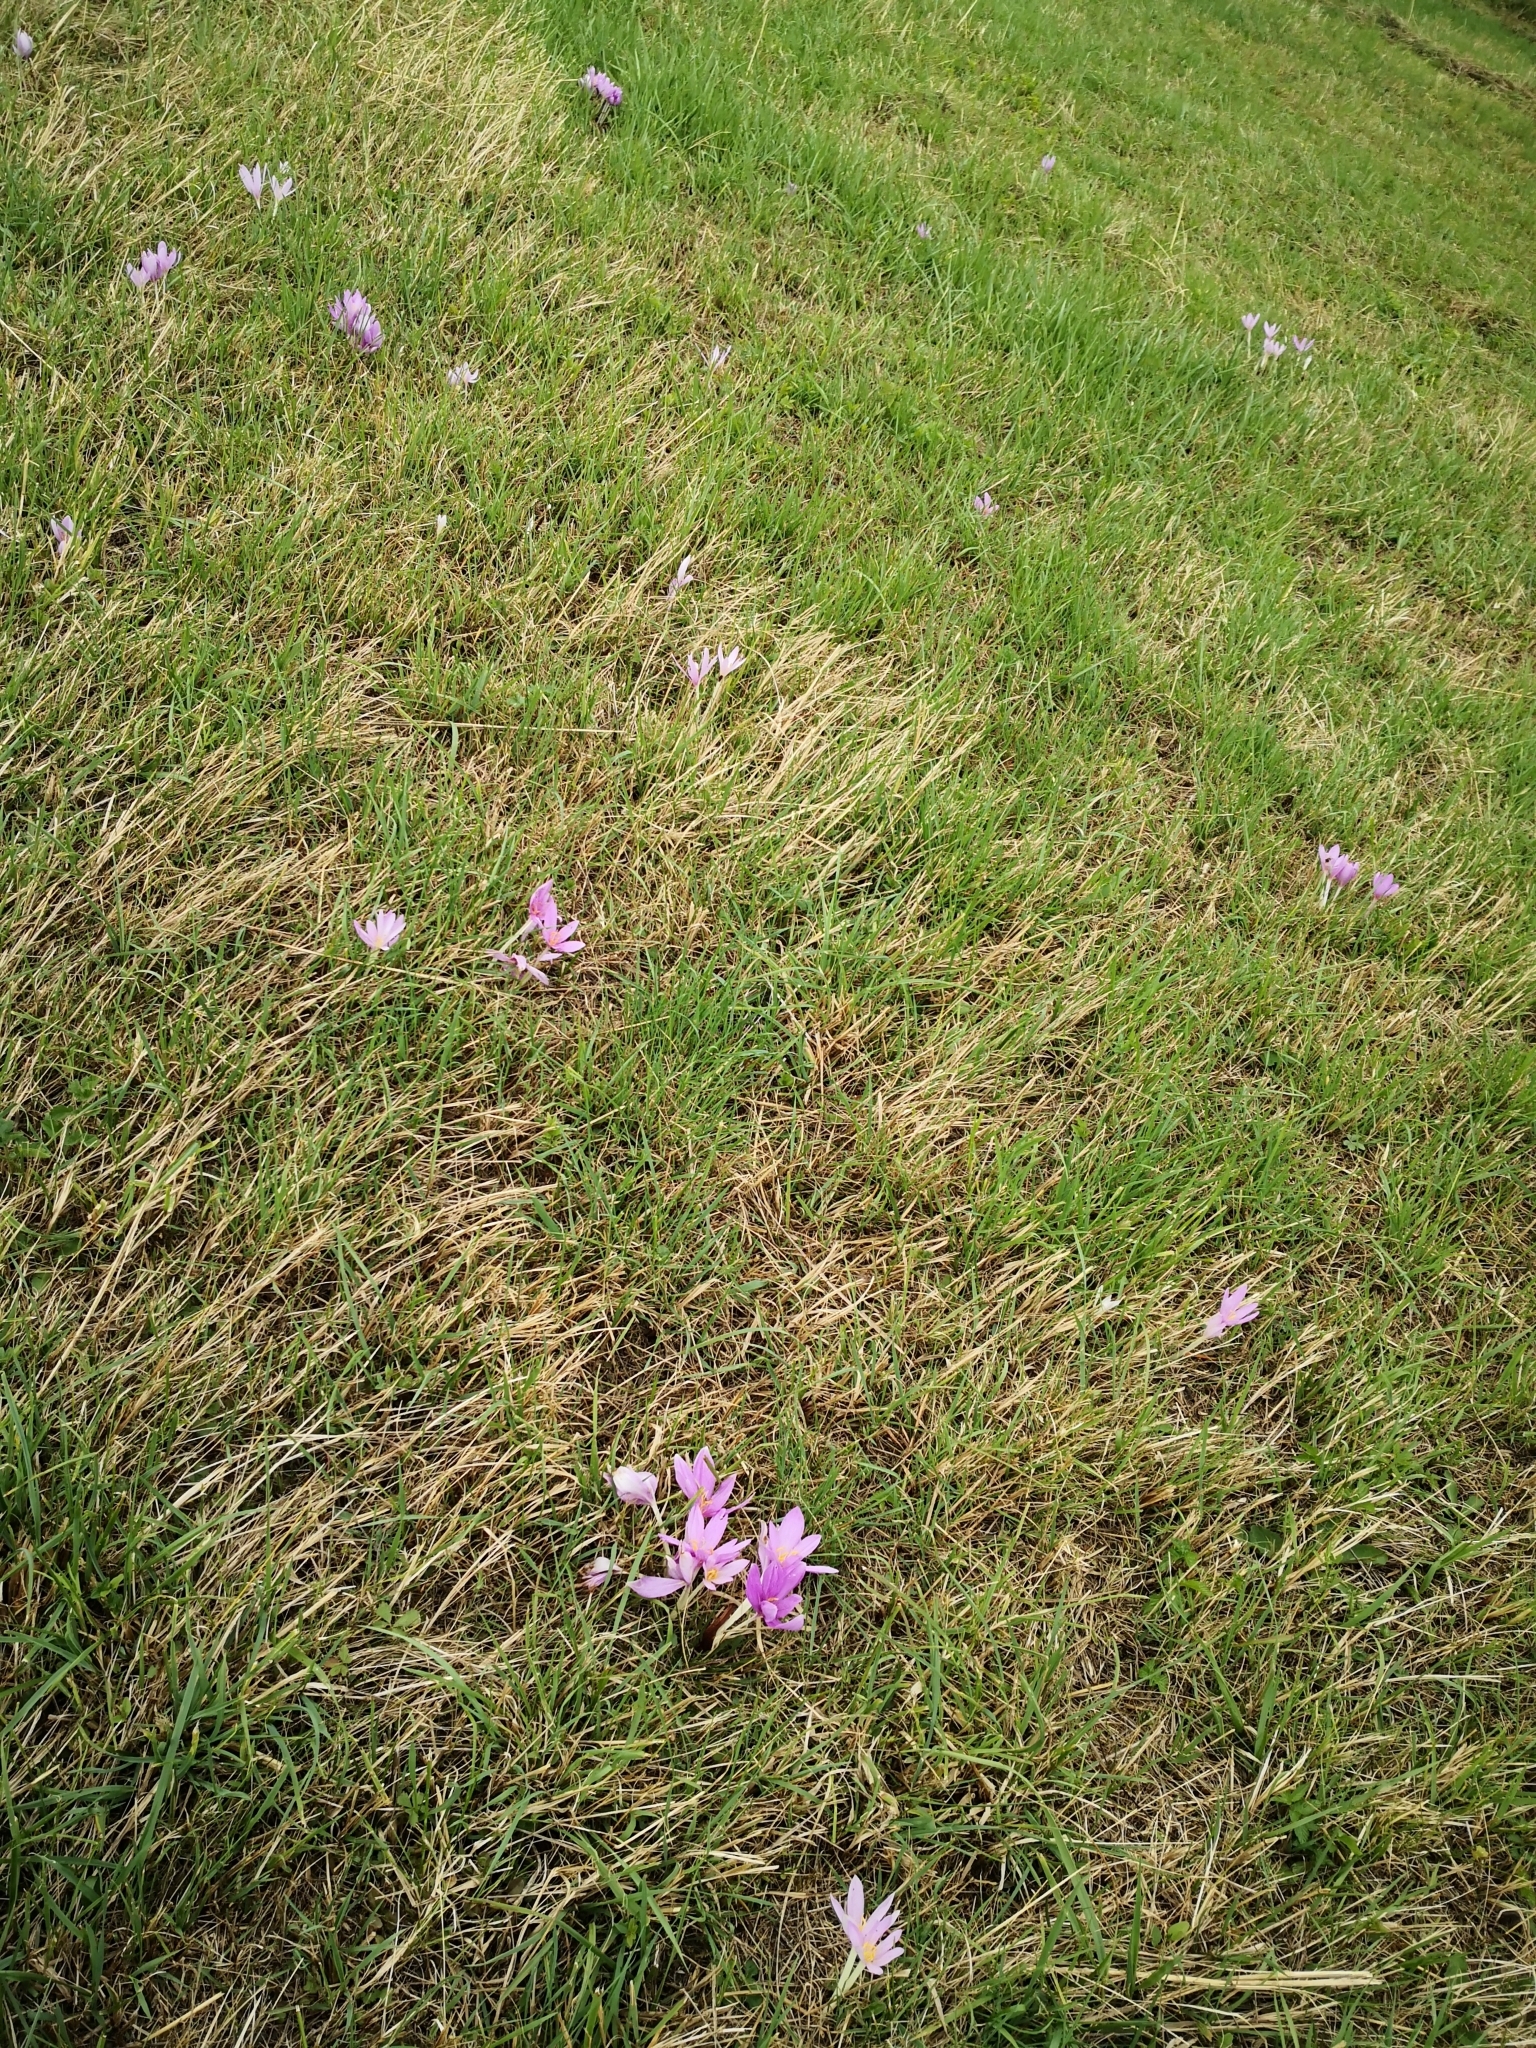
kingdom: Plantae
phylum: Tracheophyta
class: Liliopsida
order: Liliales
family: Colchicaceae
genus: Colchicum
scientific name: Colchicum autumnale
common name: Autumn crocus
